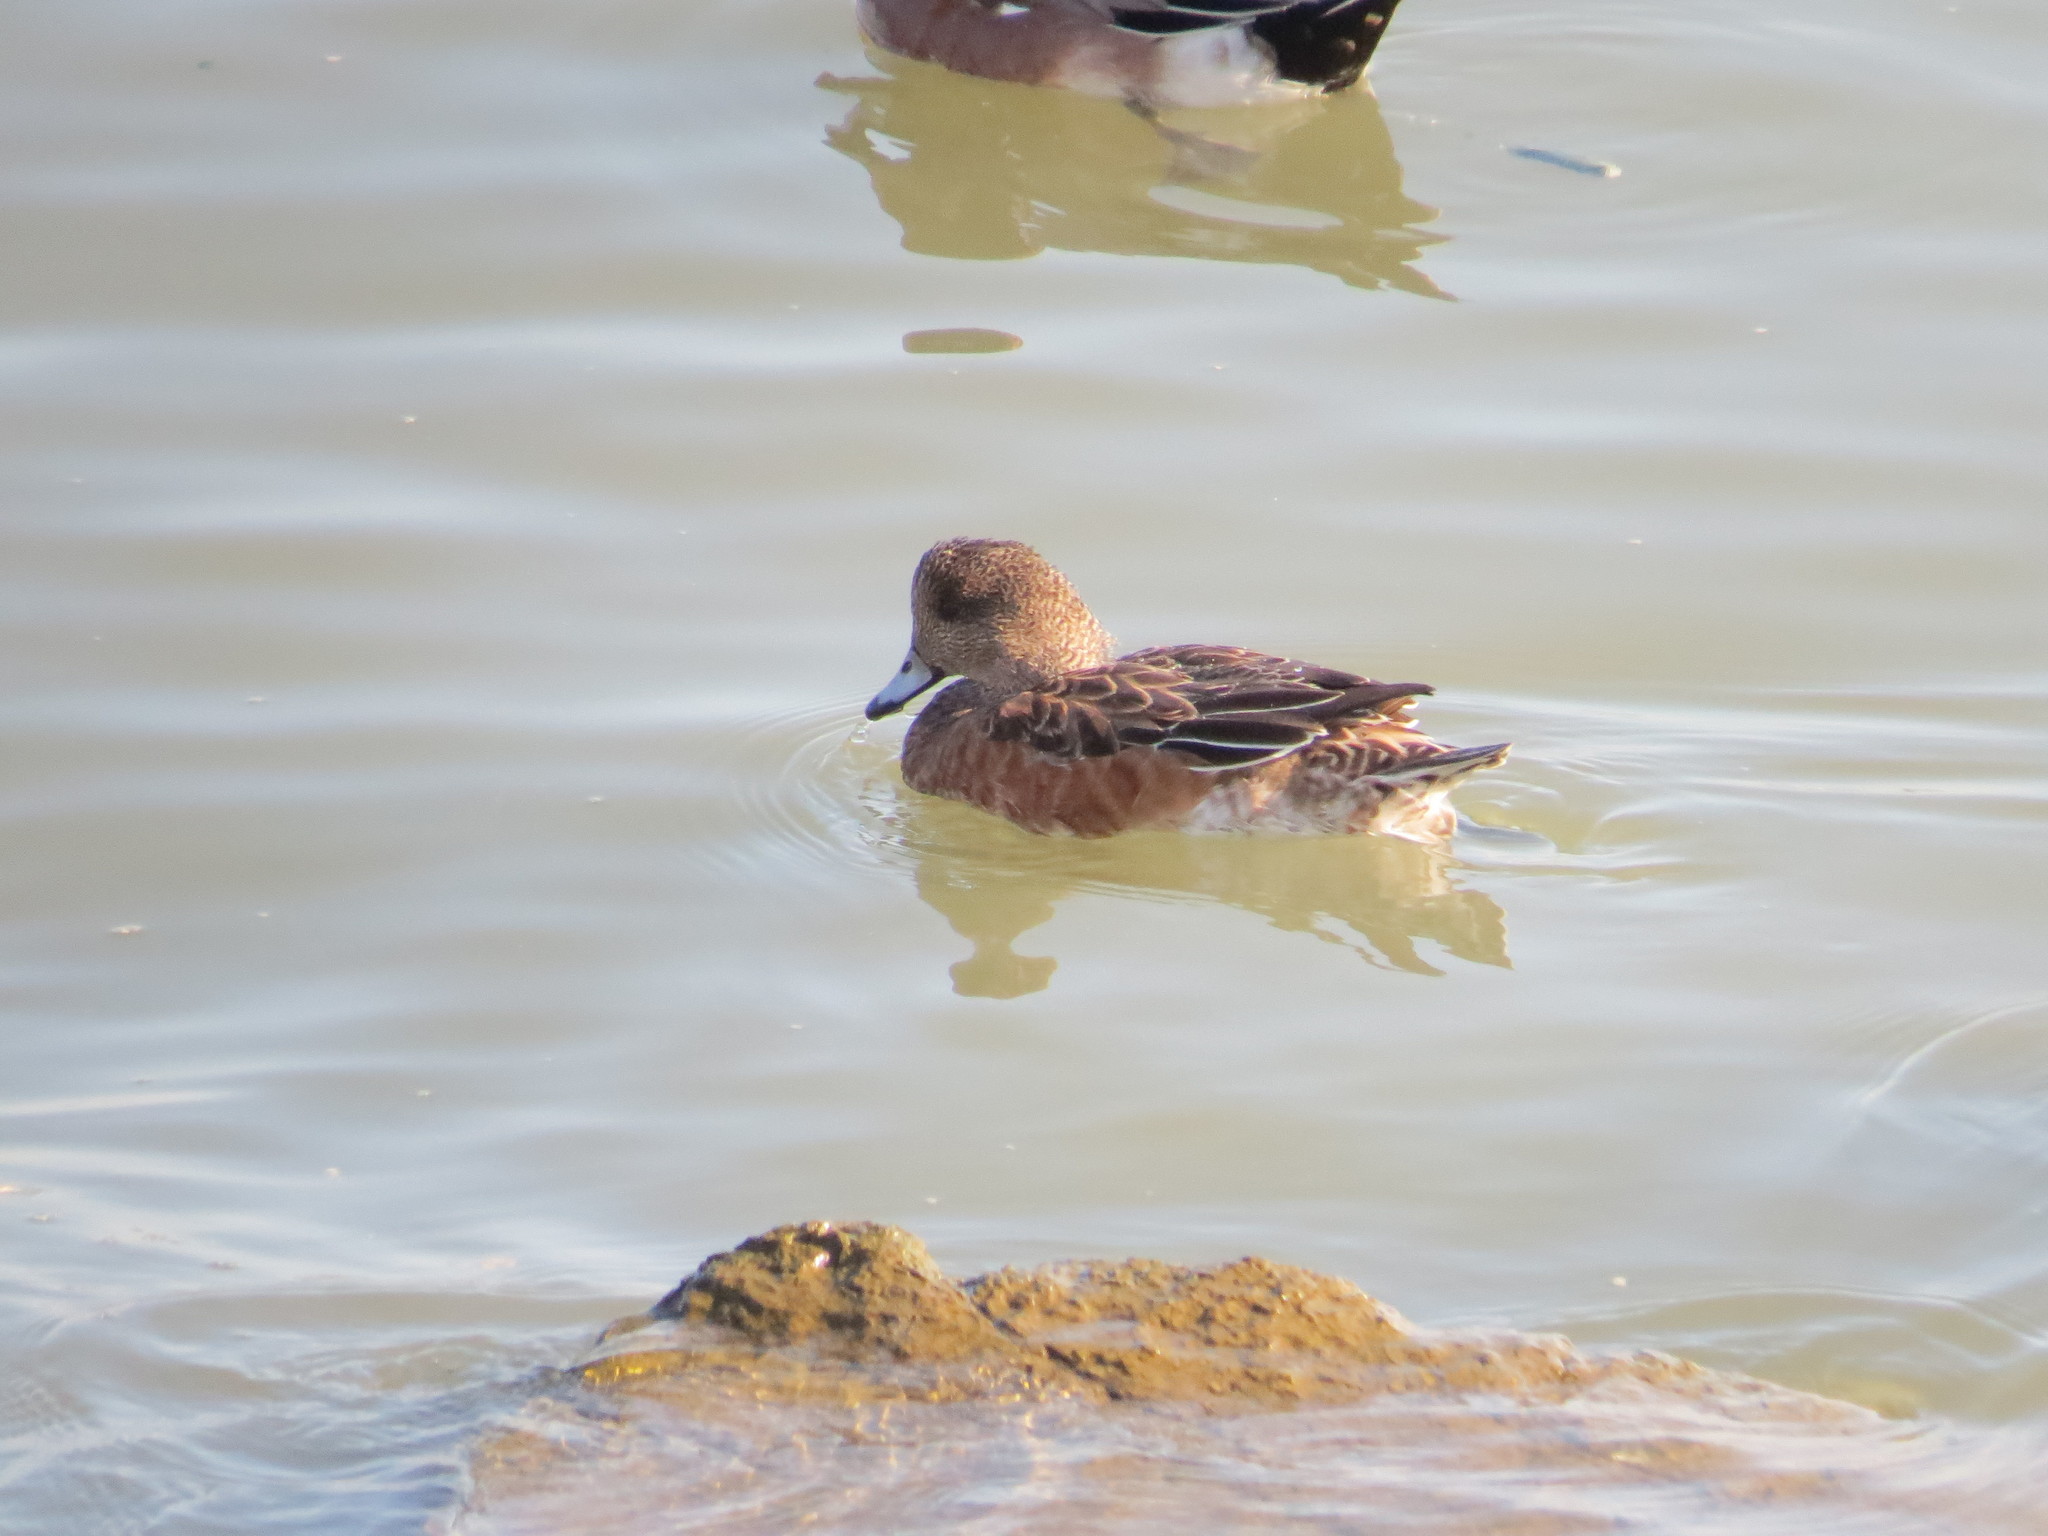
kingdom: Animalia
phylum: Chordata
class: Aves
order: Anseriformes
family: Anatidae
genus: Mareca
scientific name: Mareca americana
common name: American wigeon
